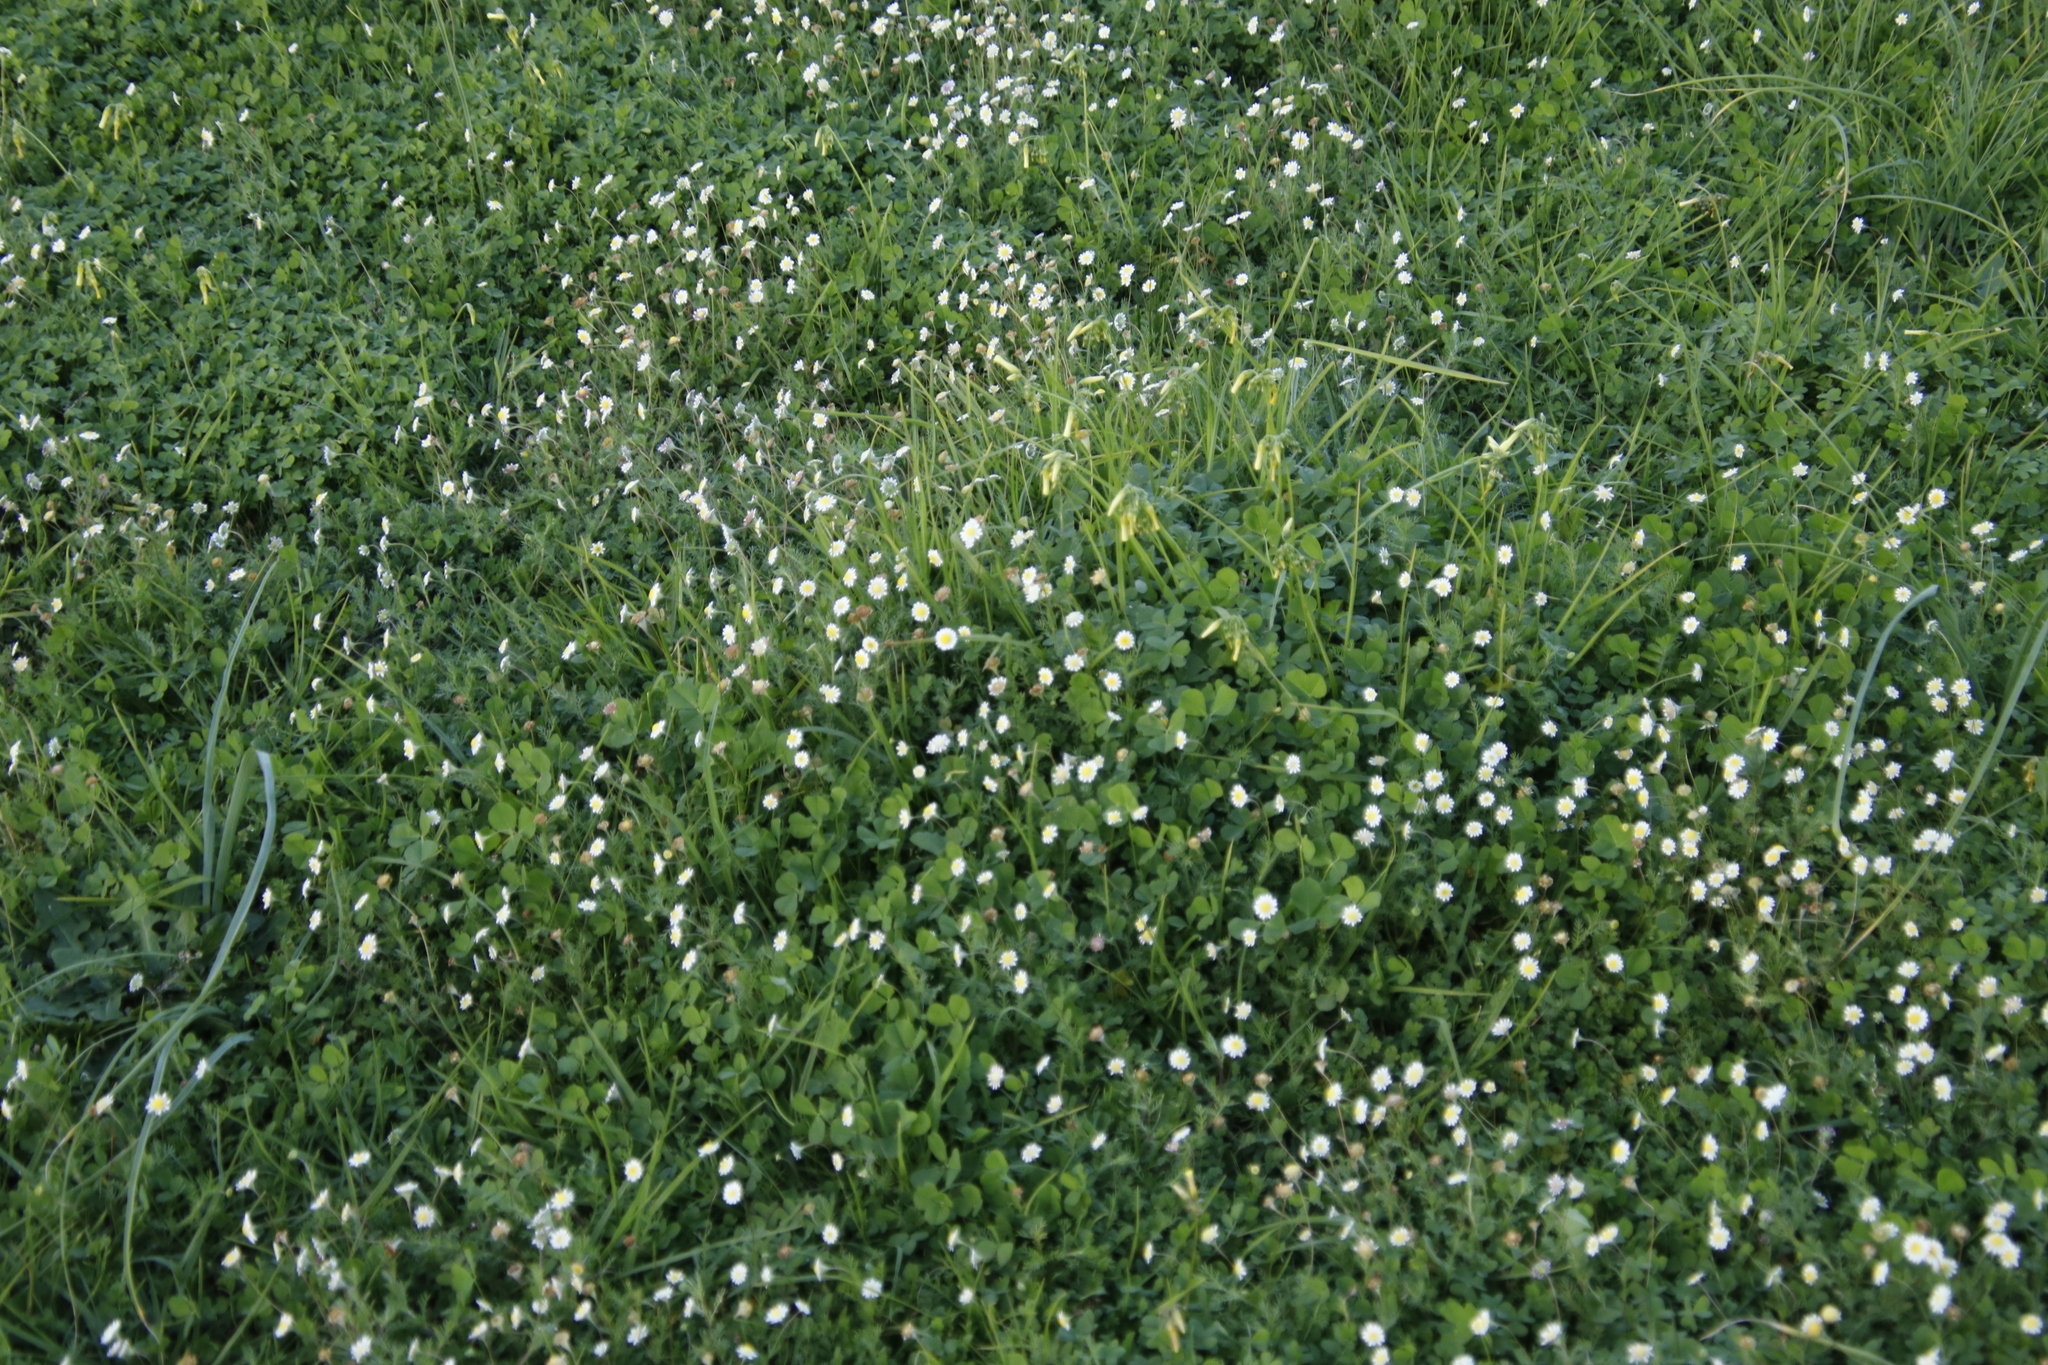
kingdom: Plantae
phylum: Tracheophyta
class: Magnoliopsida
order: Oxalidales
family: Oxalidaceae
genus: Oxalis
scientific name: Oxalis pes-caprae
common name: Bermuda-buttercup
